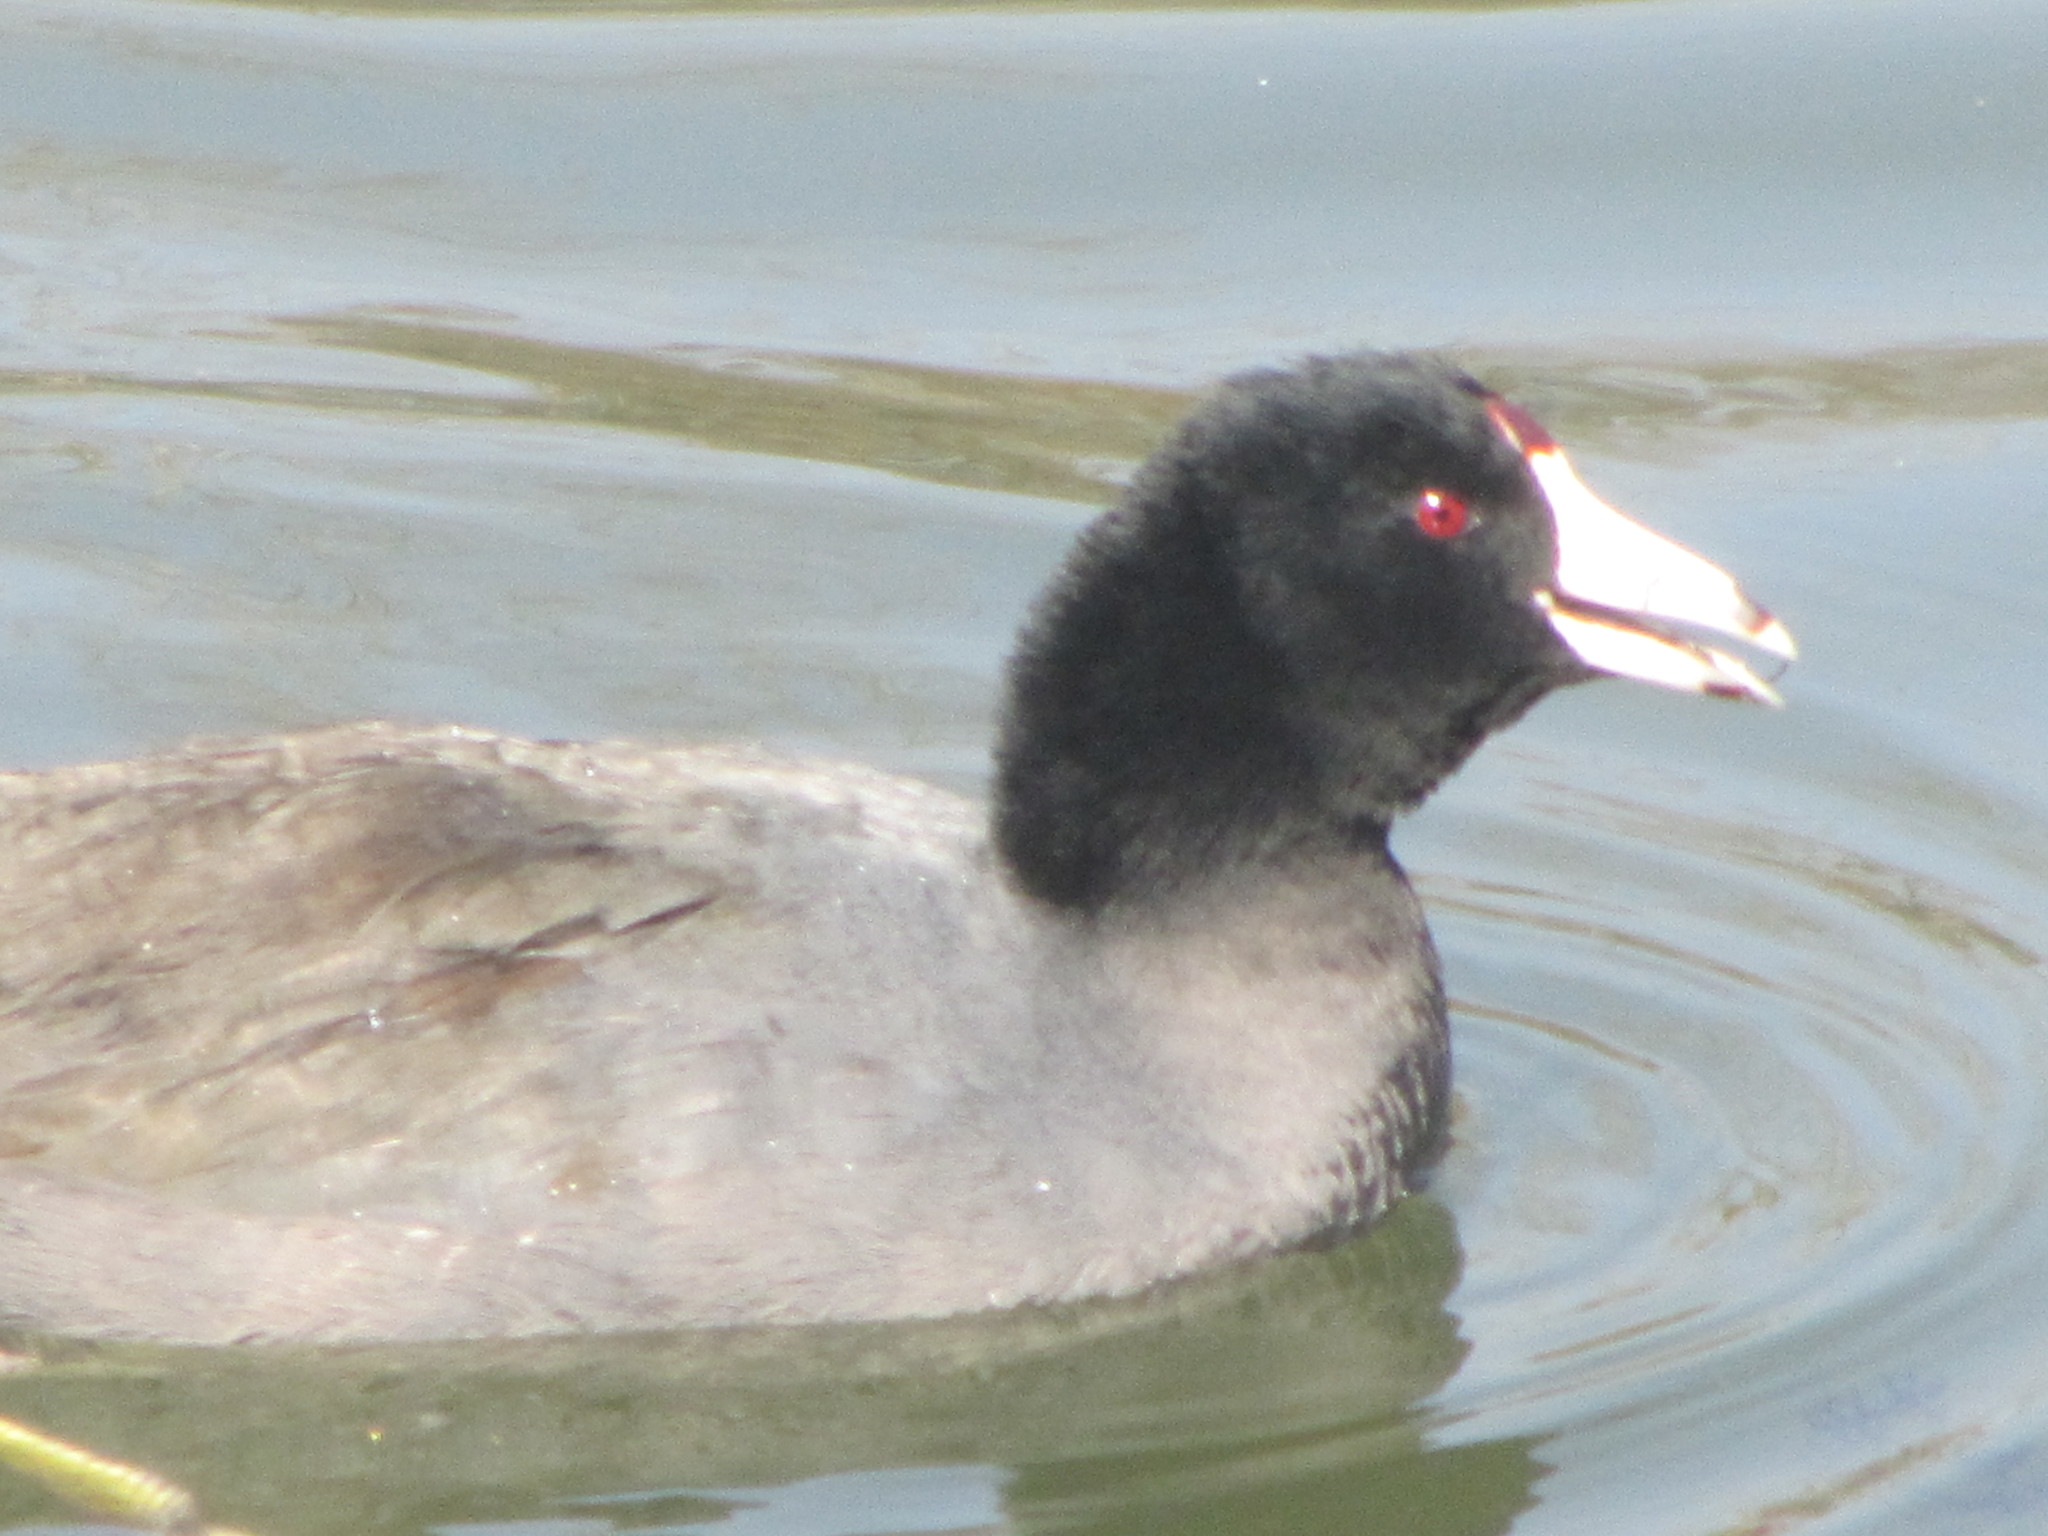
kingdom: Animalia
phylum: Chordata
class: Aves
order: Gruiformes
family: Rallidae
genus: Fulica
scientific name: Fulica americana
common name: American coot
